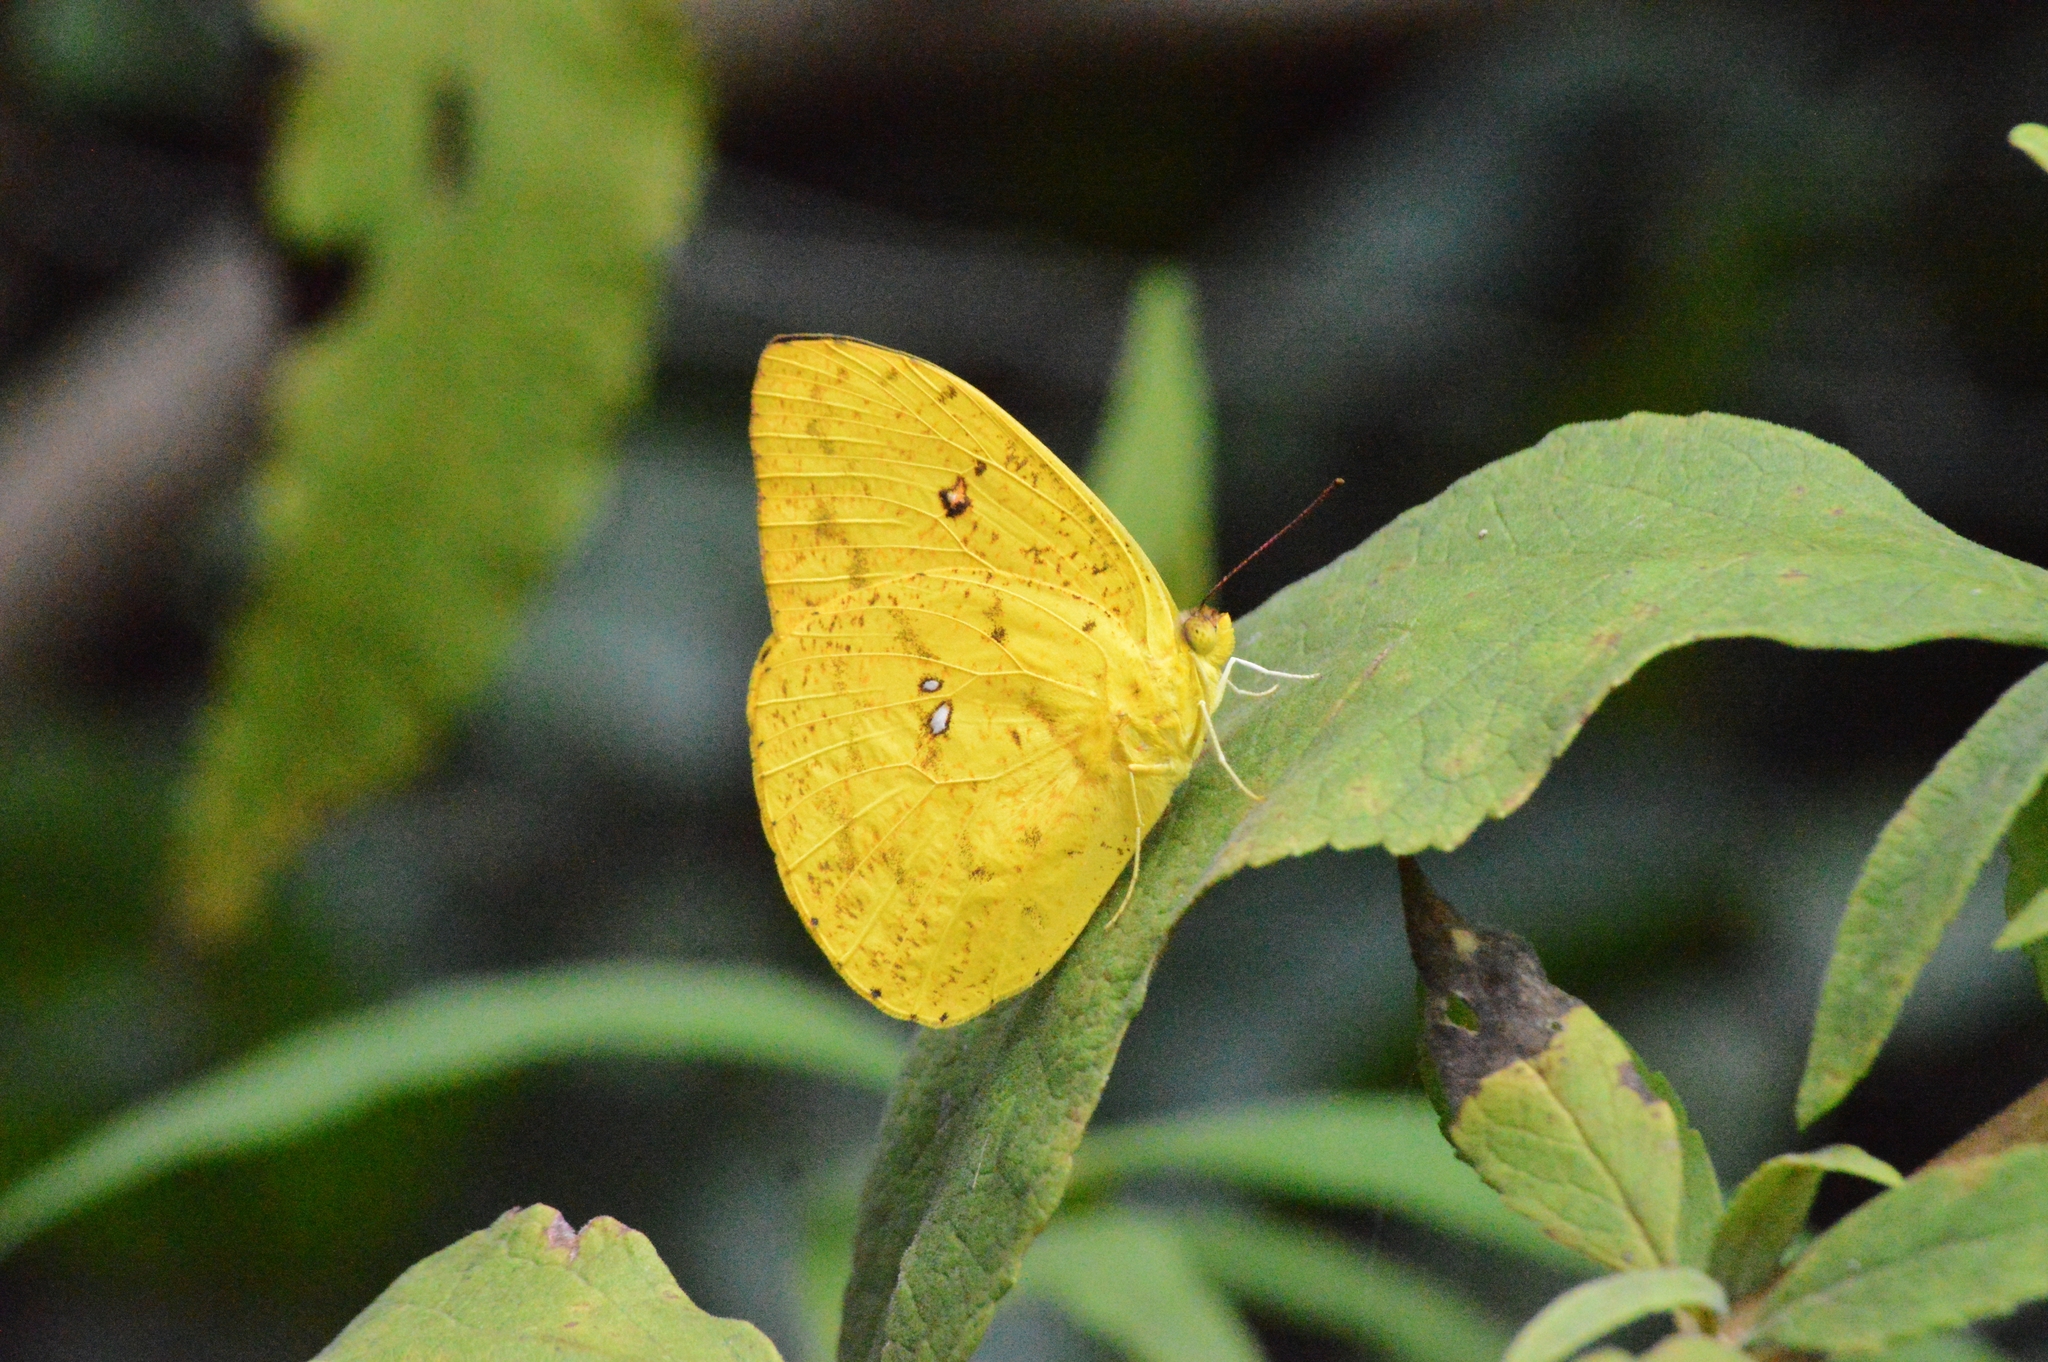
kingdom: Animalia
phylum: Arthropoda
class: Insecta
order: Lepidoptera
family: Pieridae
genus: Phoebis
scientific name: Phoebis argante
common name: Apricot sulphur
